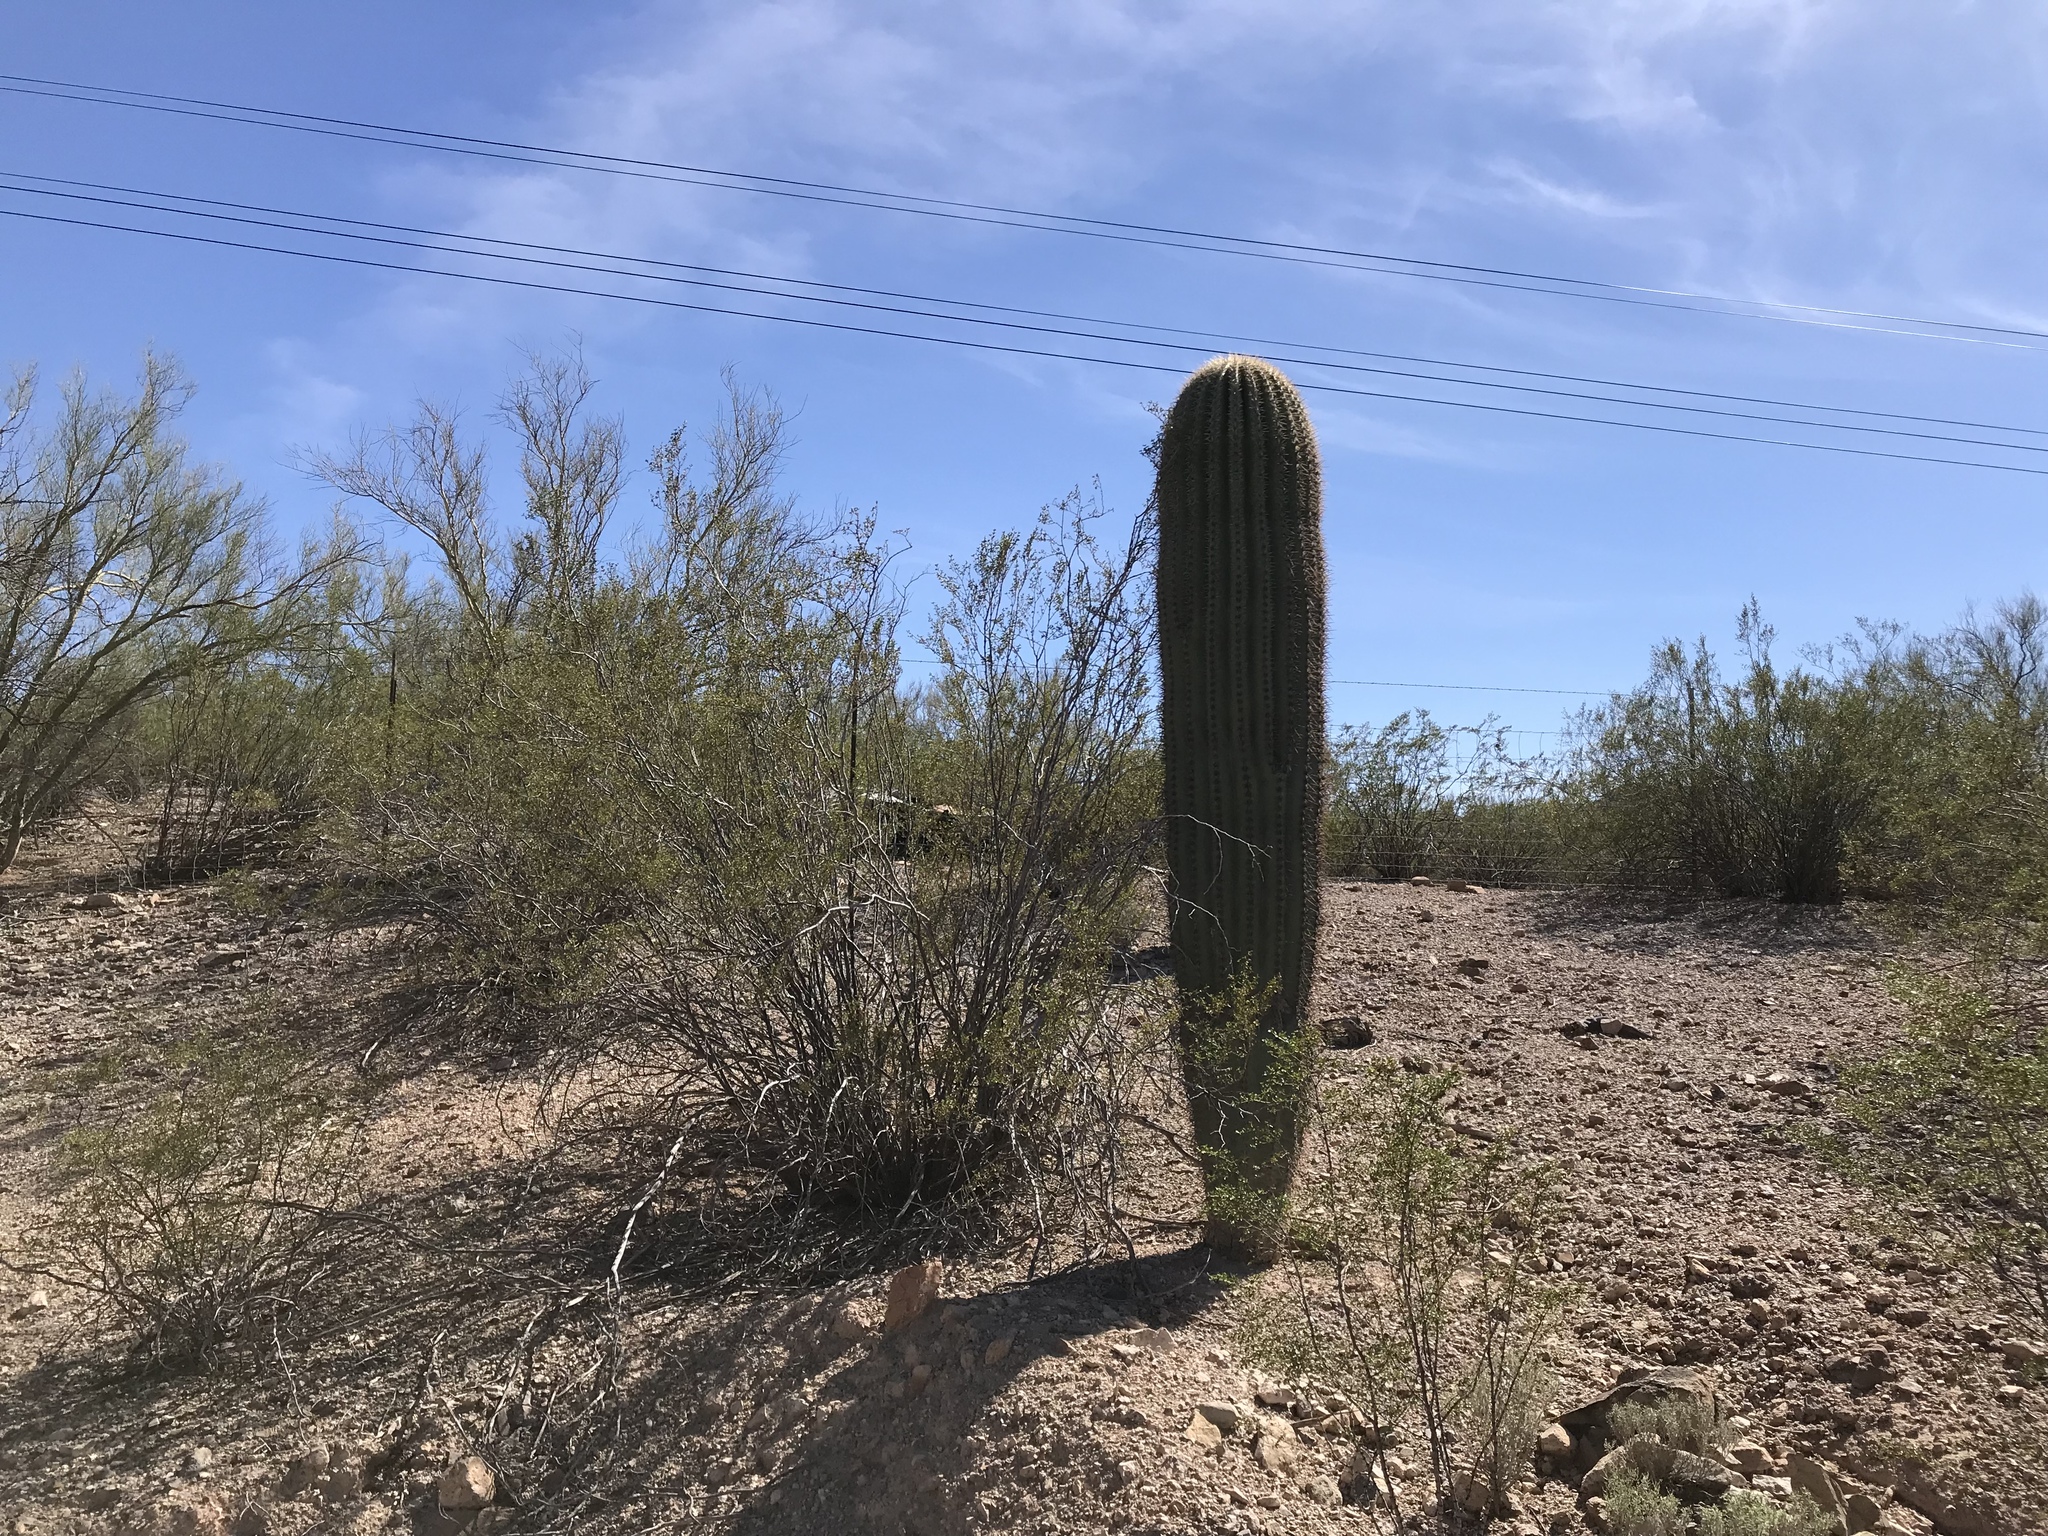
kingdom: Plantae
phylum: Tracheophyta
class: Magnoliopsida
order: Caryophyllales
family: Cactaceae
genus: Carnegiea
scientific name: Carnegiea gigantea
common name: Saguaro
